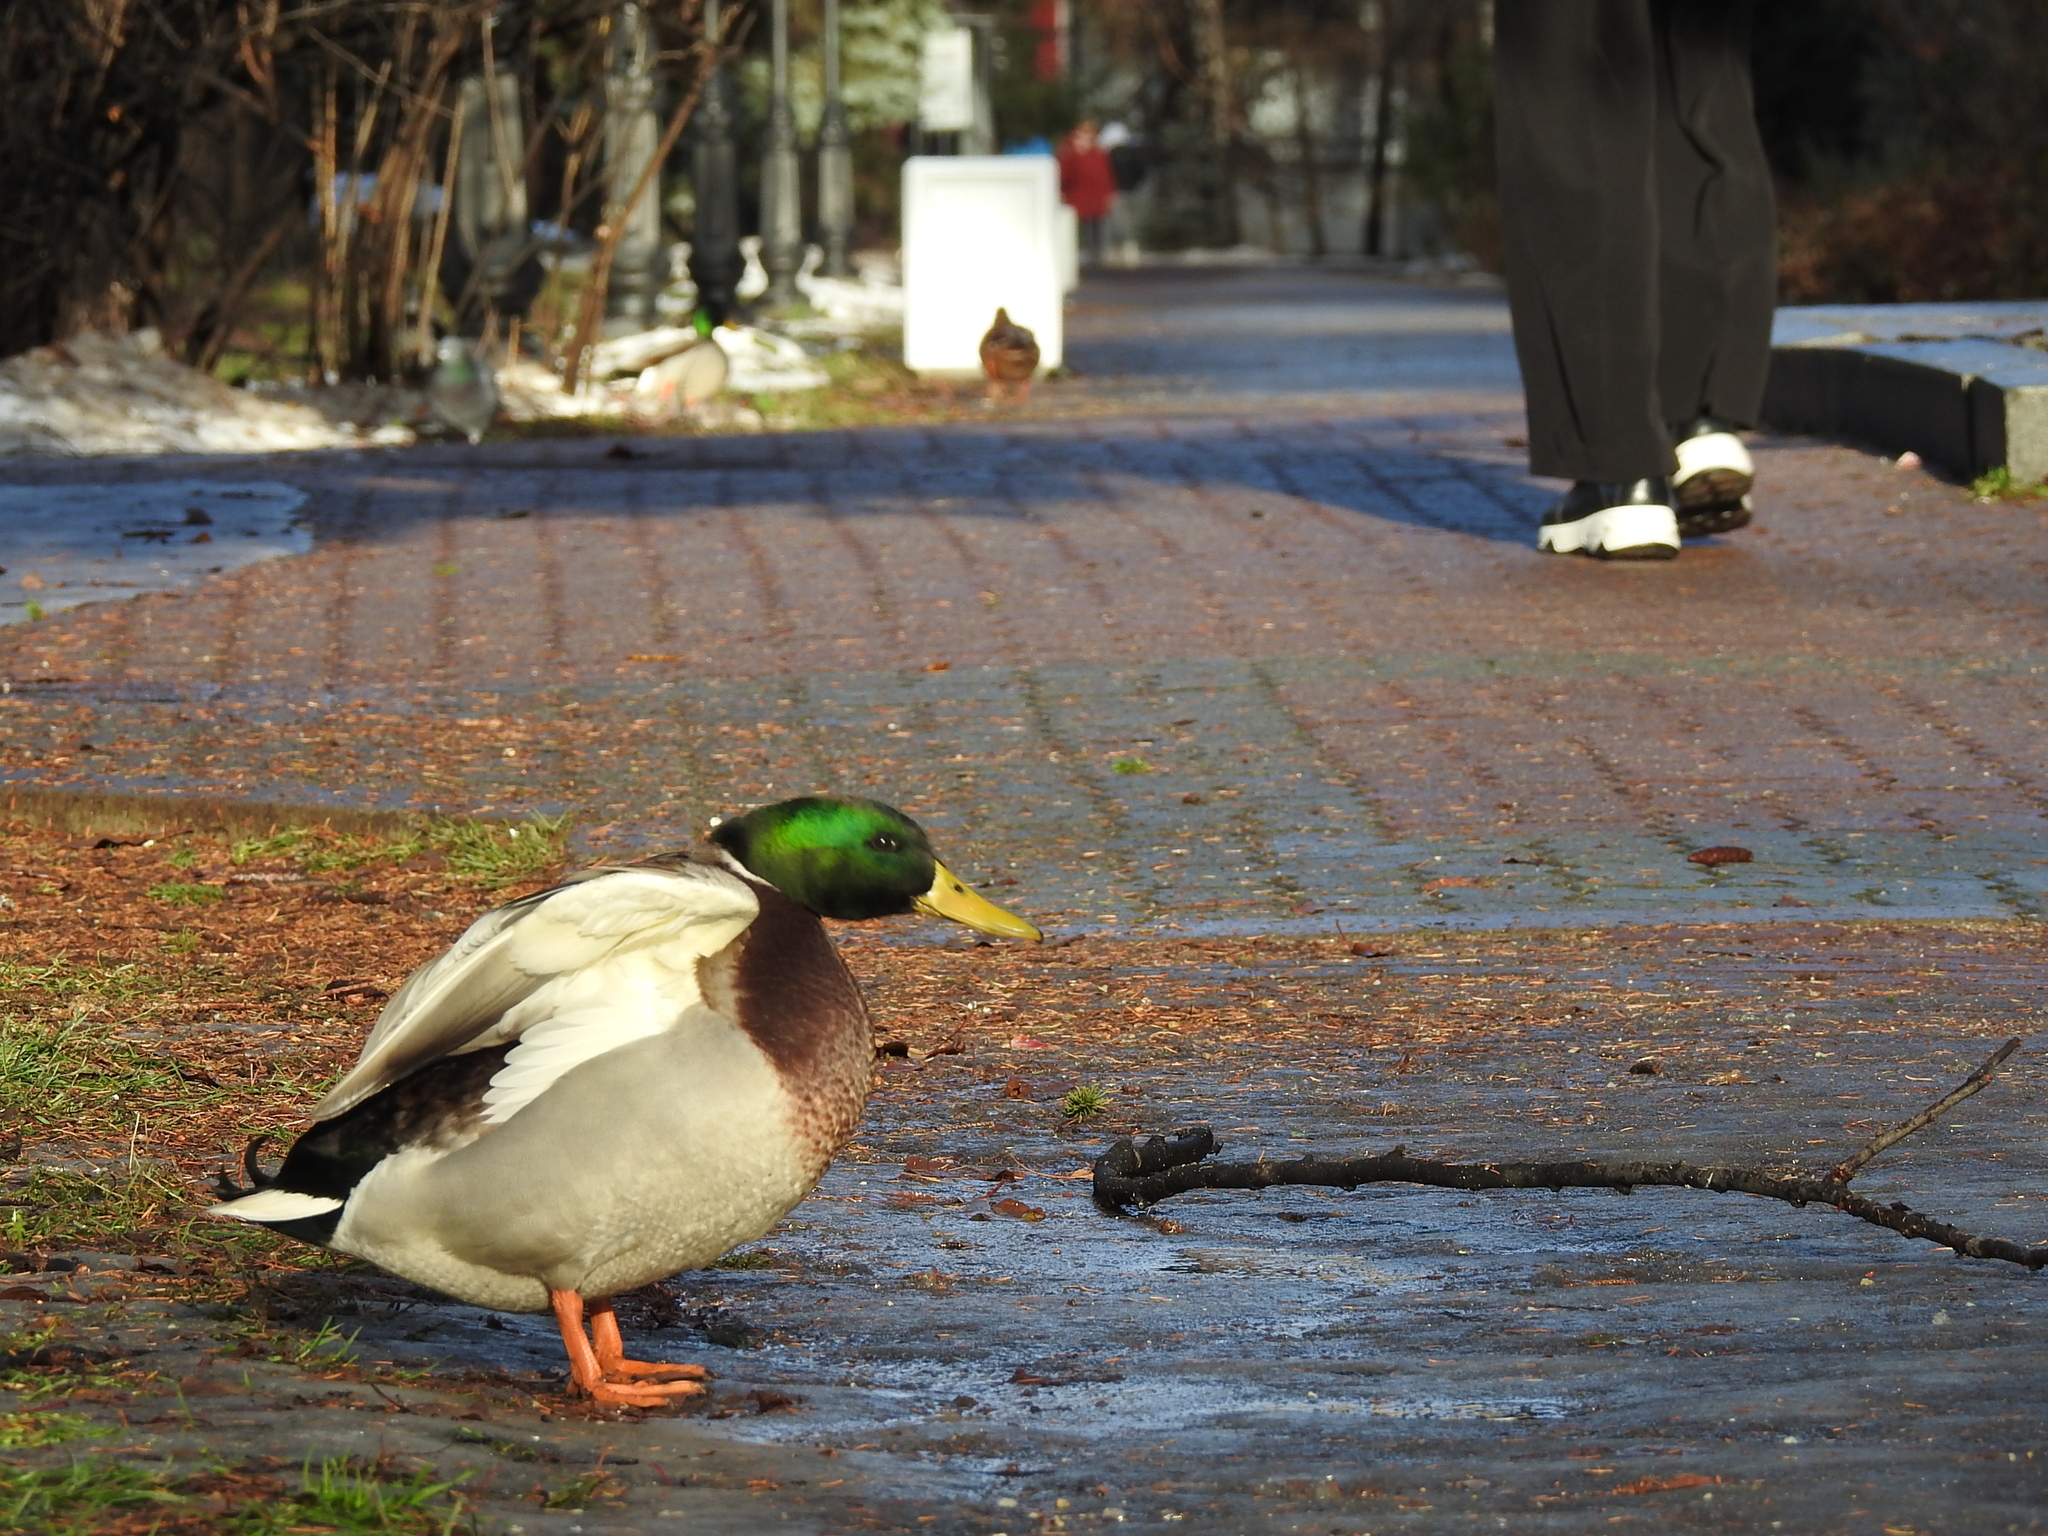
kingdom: Animalia
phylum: Chordata
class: Aves
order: Anseriformes
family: Anatidae
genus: Anas
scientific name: Anas platyrhynchos
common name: Mallard
